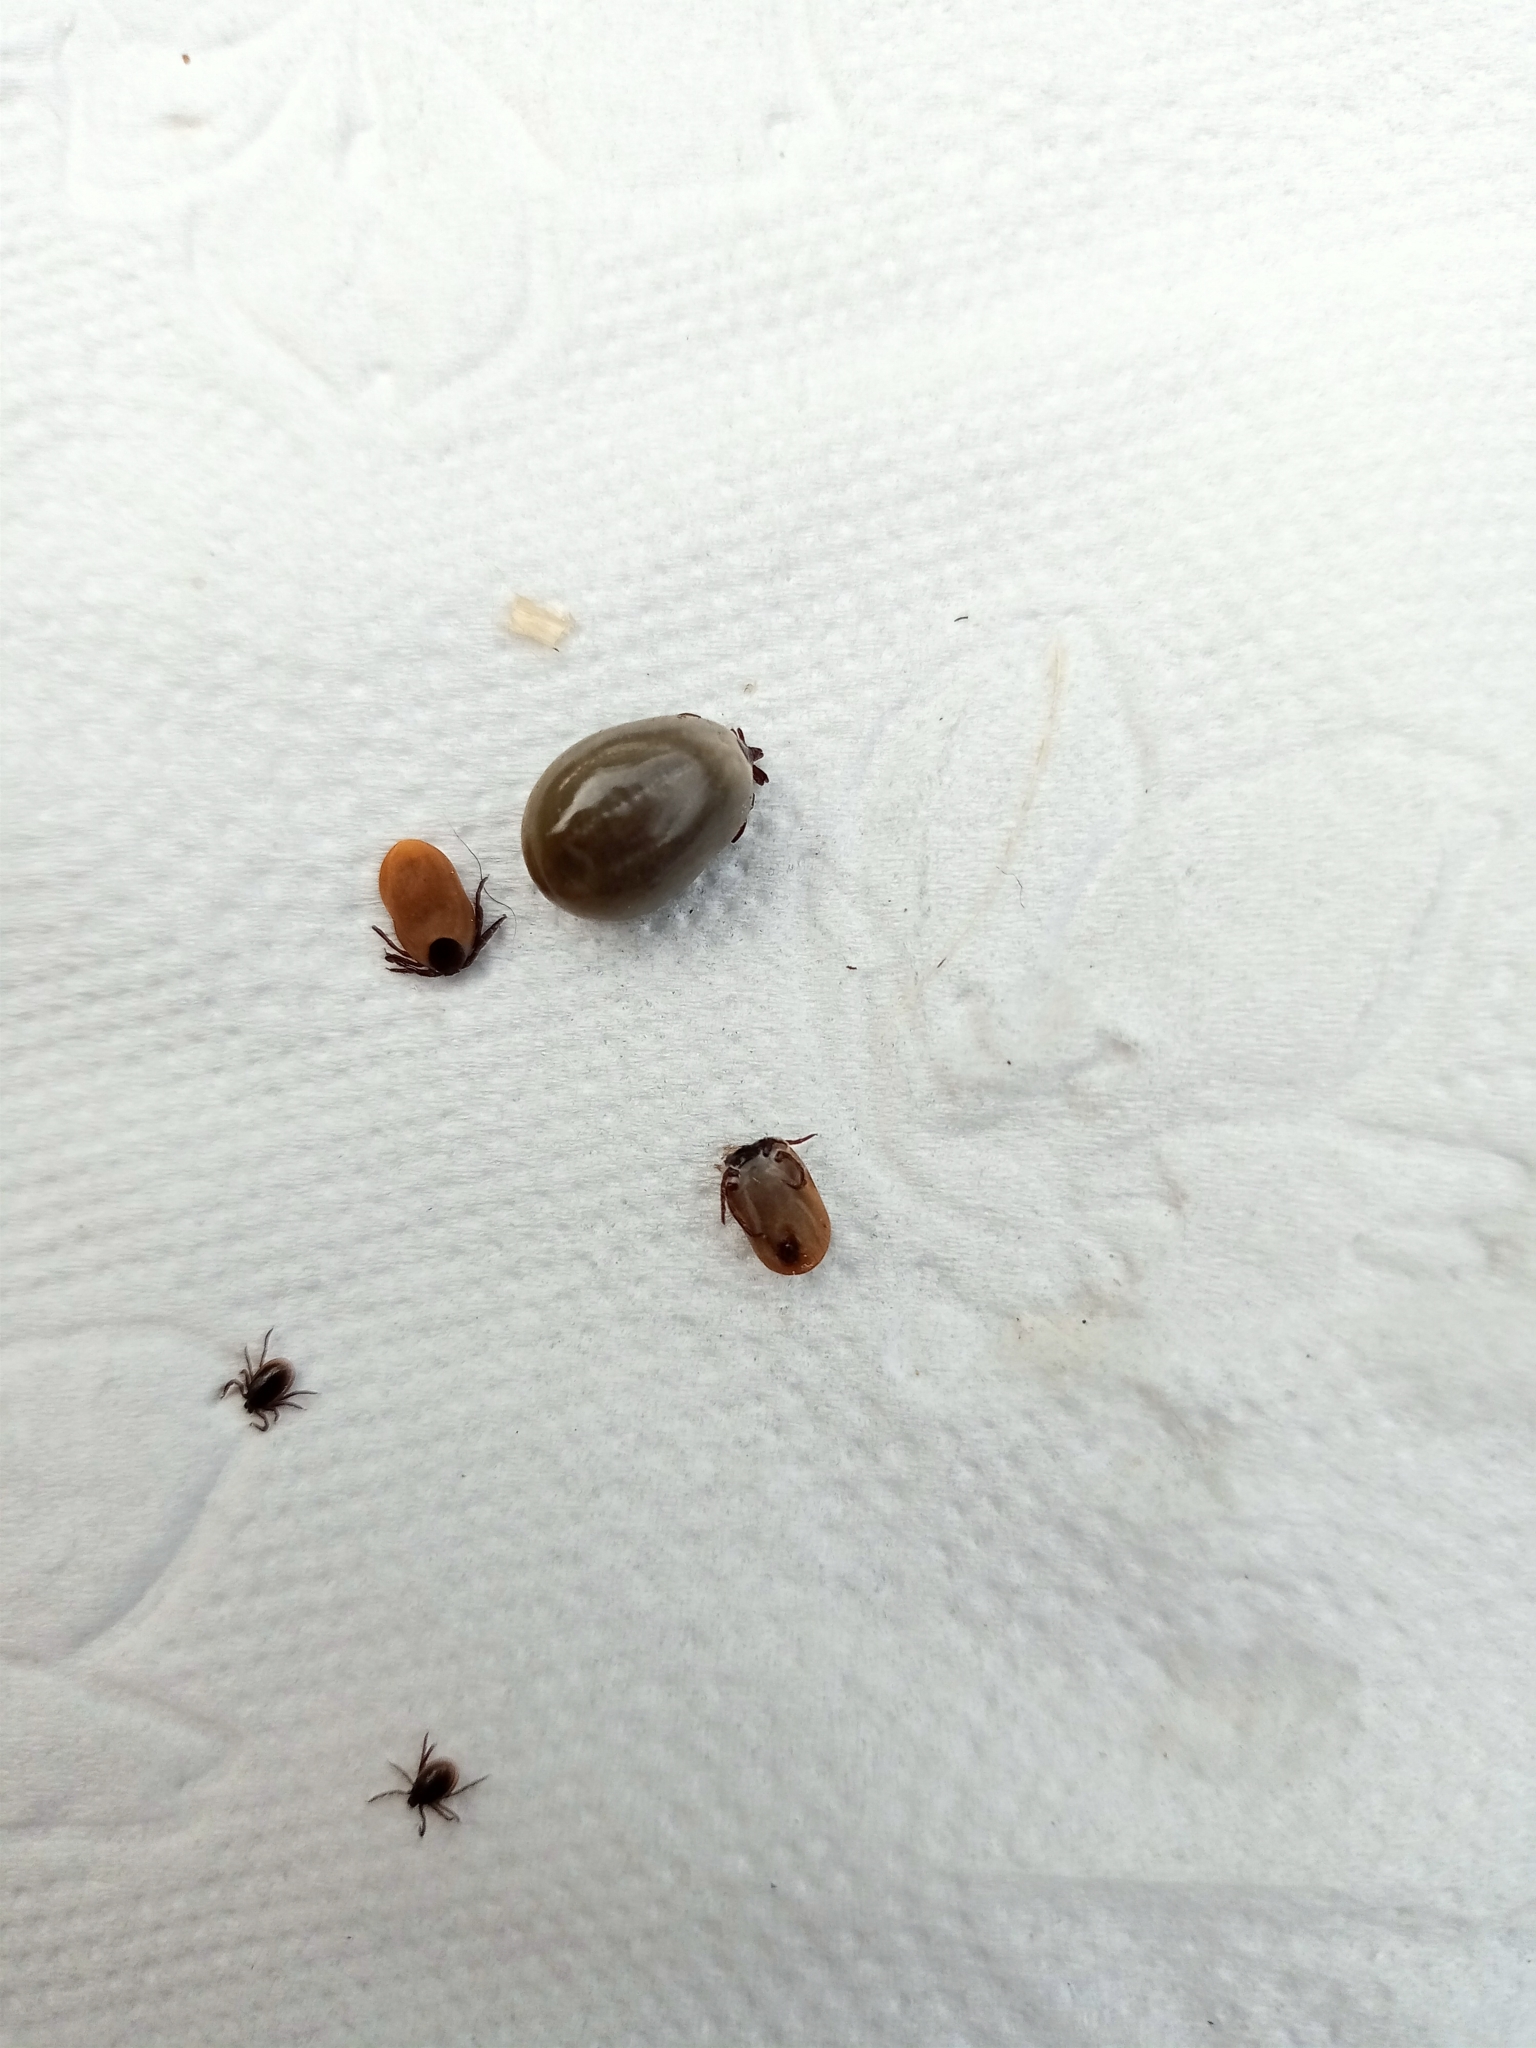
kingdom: Animalia
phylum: Arthropoda
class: Arachnida
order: Ixodida
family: Ixodidae
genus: Ixodes
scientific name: Ixodes persulcatus
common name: Taiga tick
